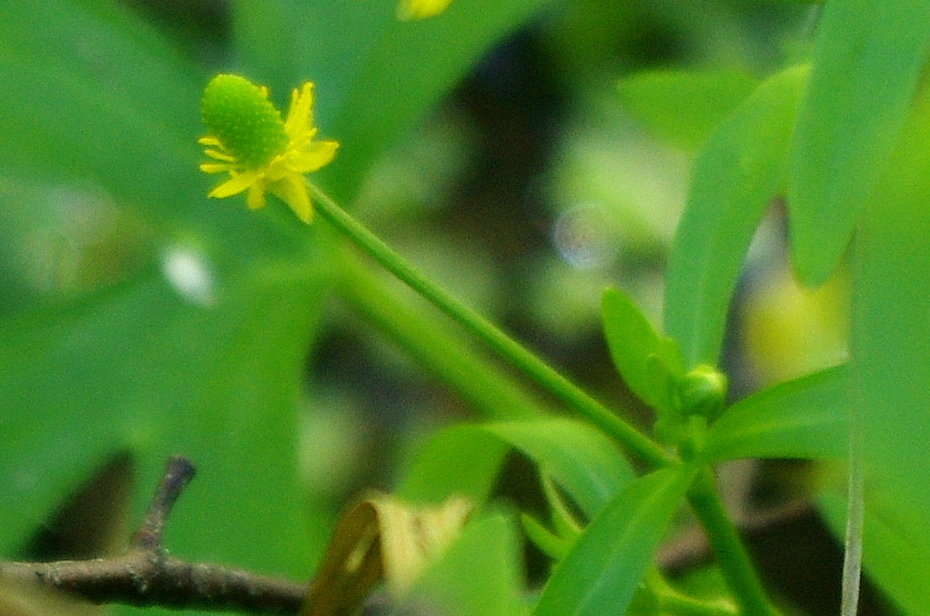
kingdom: Plantae
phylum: Tracheophyta
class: Magnoliopsida
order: Ranunculales
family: Ranunculaceae
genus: Ranunculus
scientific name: Ranunculus sceleratus
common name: Celery-leaved buttercup
